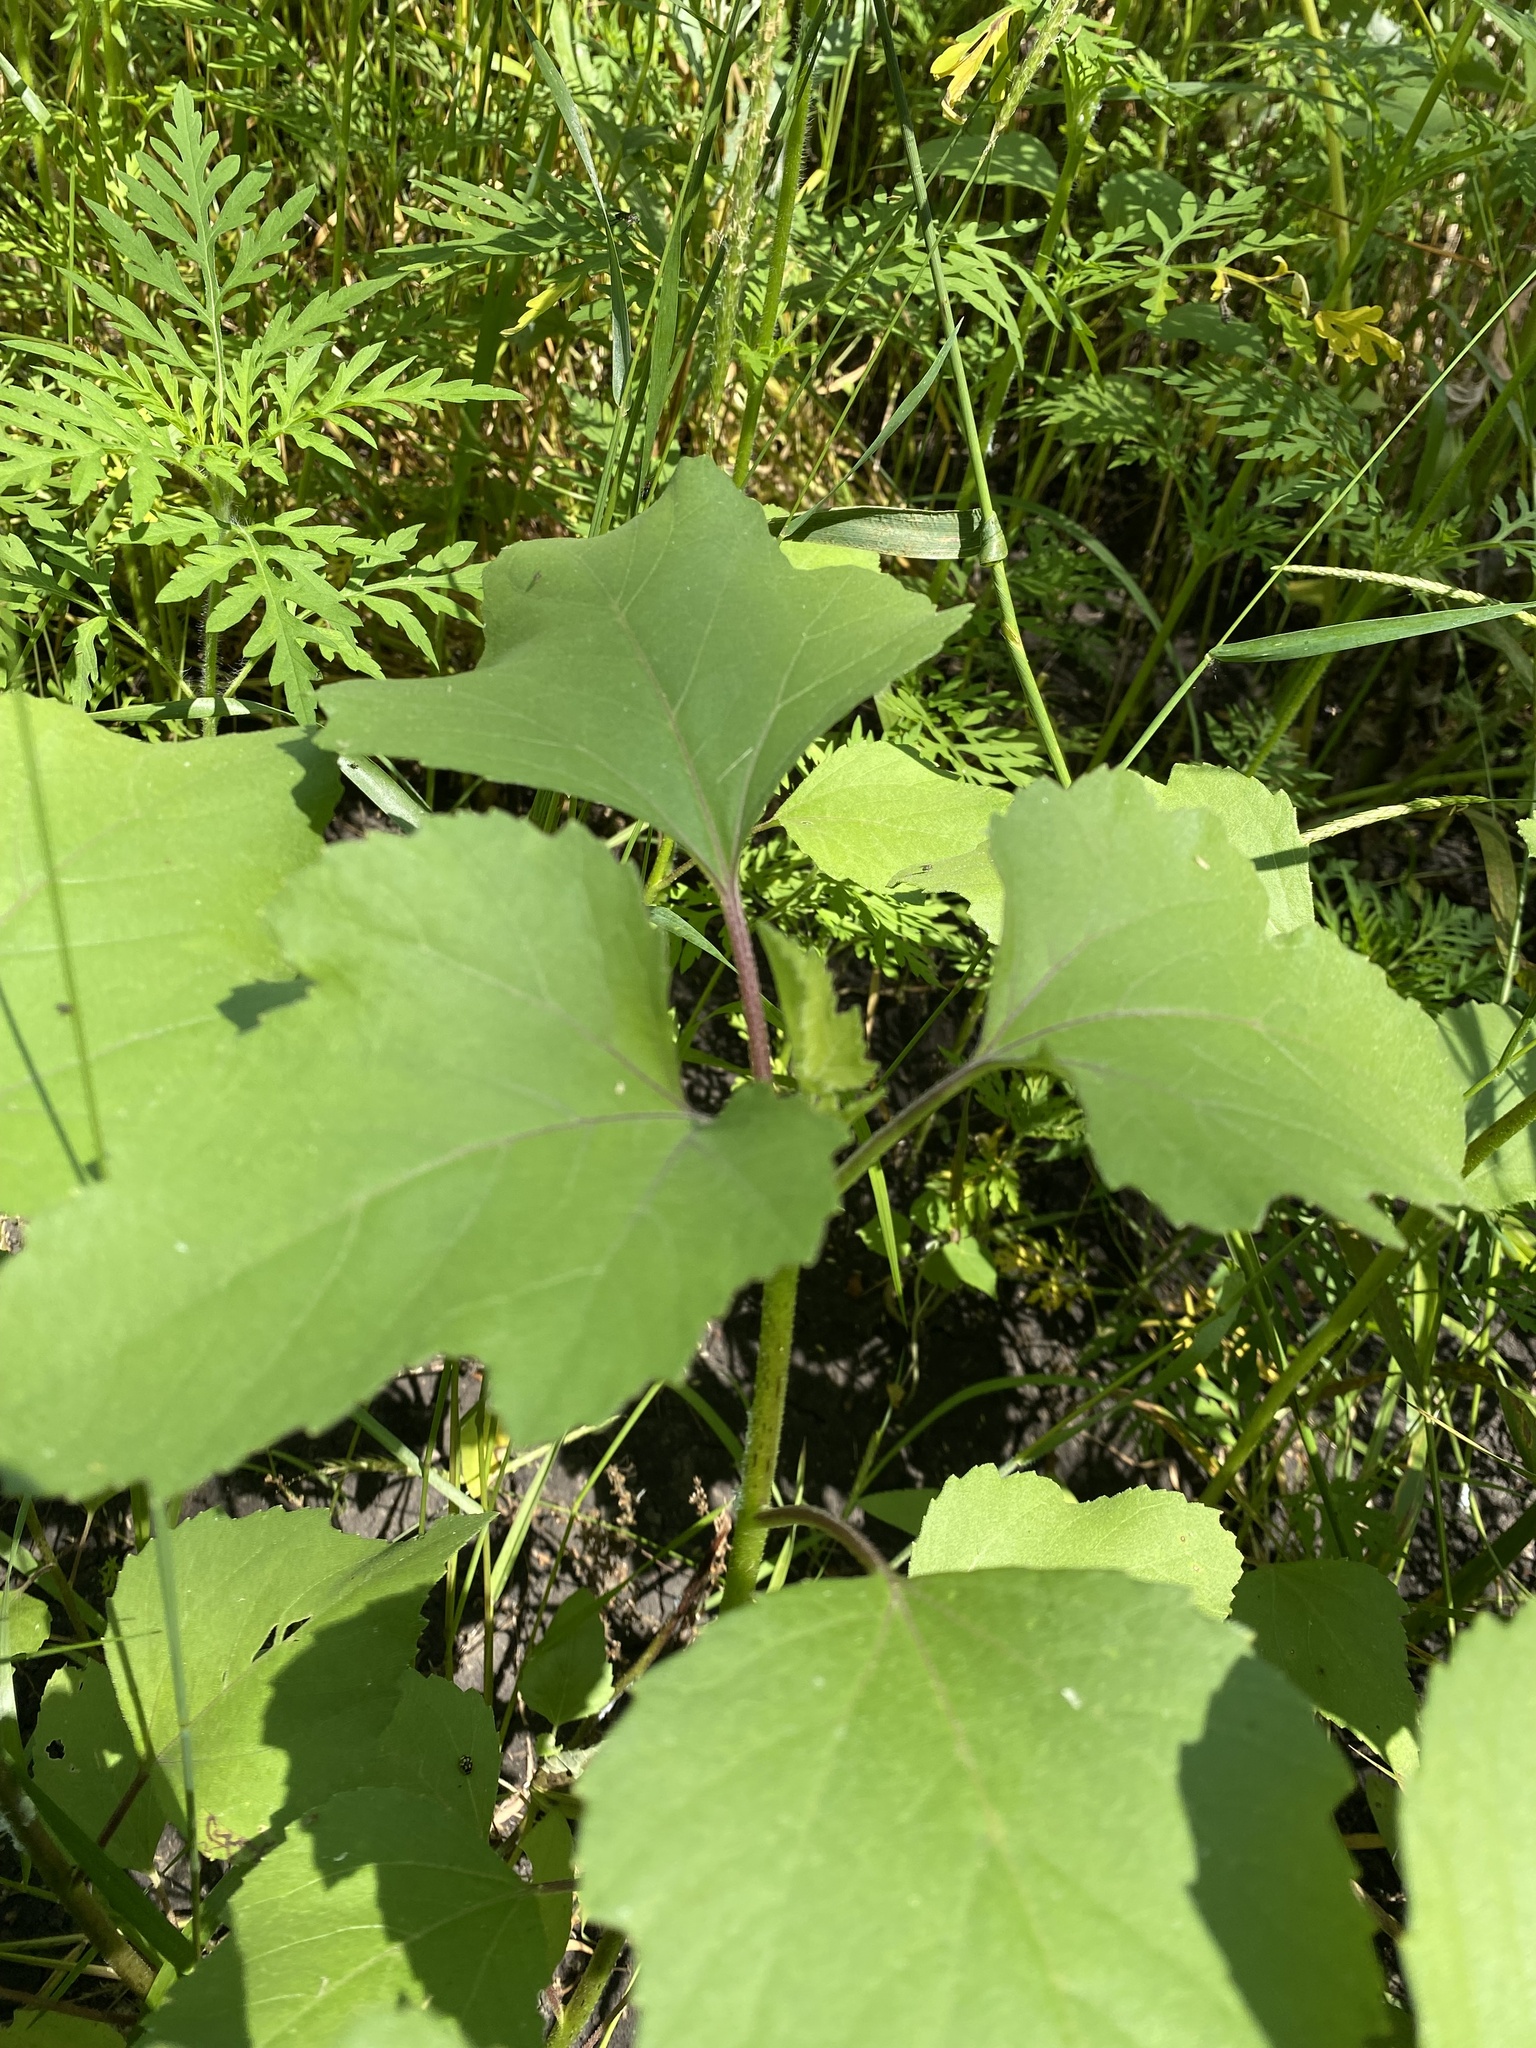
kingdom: Plantae
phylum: Tracheophyta
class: Magnoliopsida
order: Asterales
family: Asteraceae
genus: Xanthium
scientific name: Xanthium orientale
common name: Californian burr
